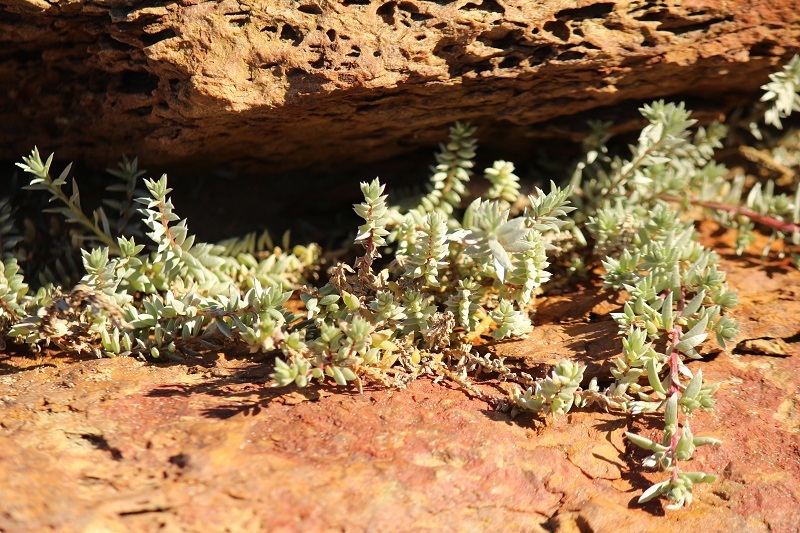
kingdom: Plantae
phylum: Tracheophyta
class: Magnoliopsida
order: Caryophyllales
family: Amaranthaceae
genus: Chenolea
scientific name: Chenolea diffusa
